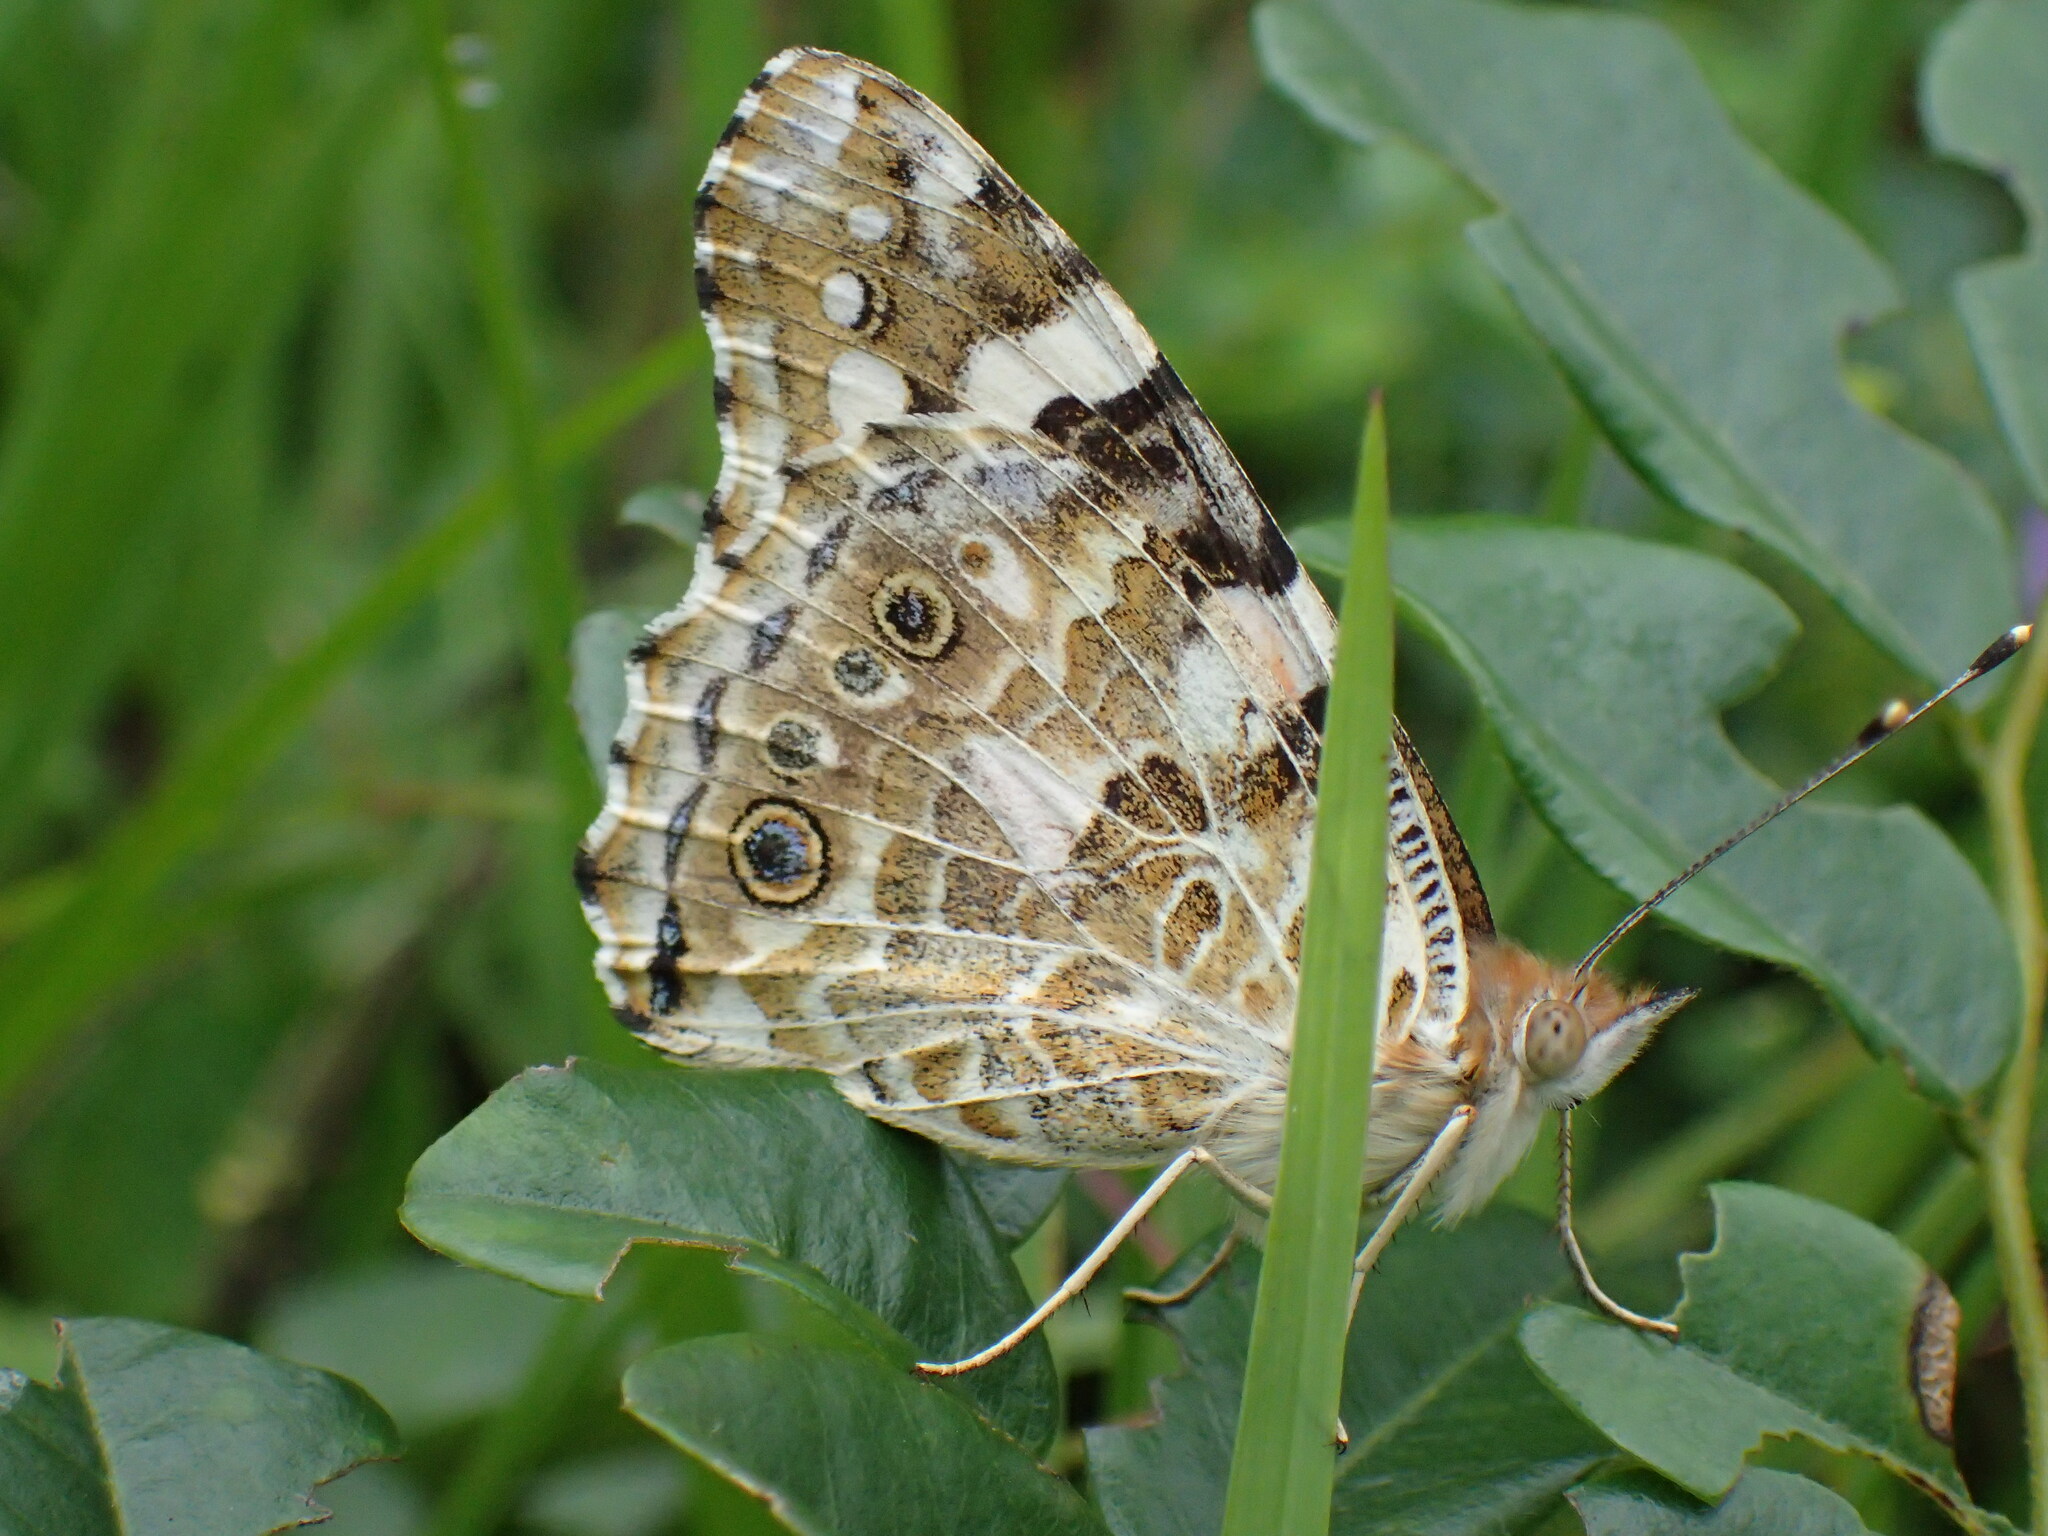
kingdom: Animalia
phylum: Arthropoda
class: Insecta
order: Lepidoptera
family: Nymphalidae
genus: Vanessa
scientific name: Vanessa cardui
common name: Painted lady
